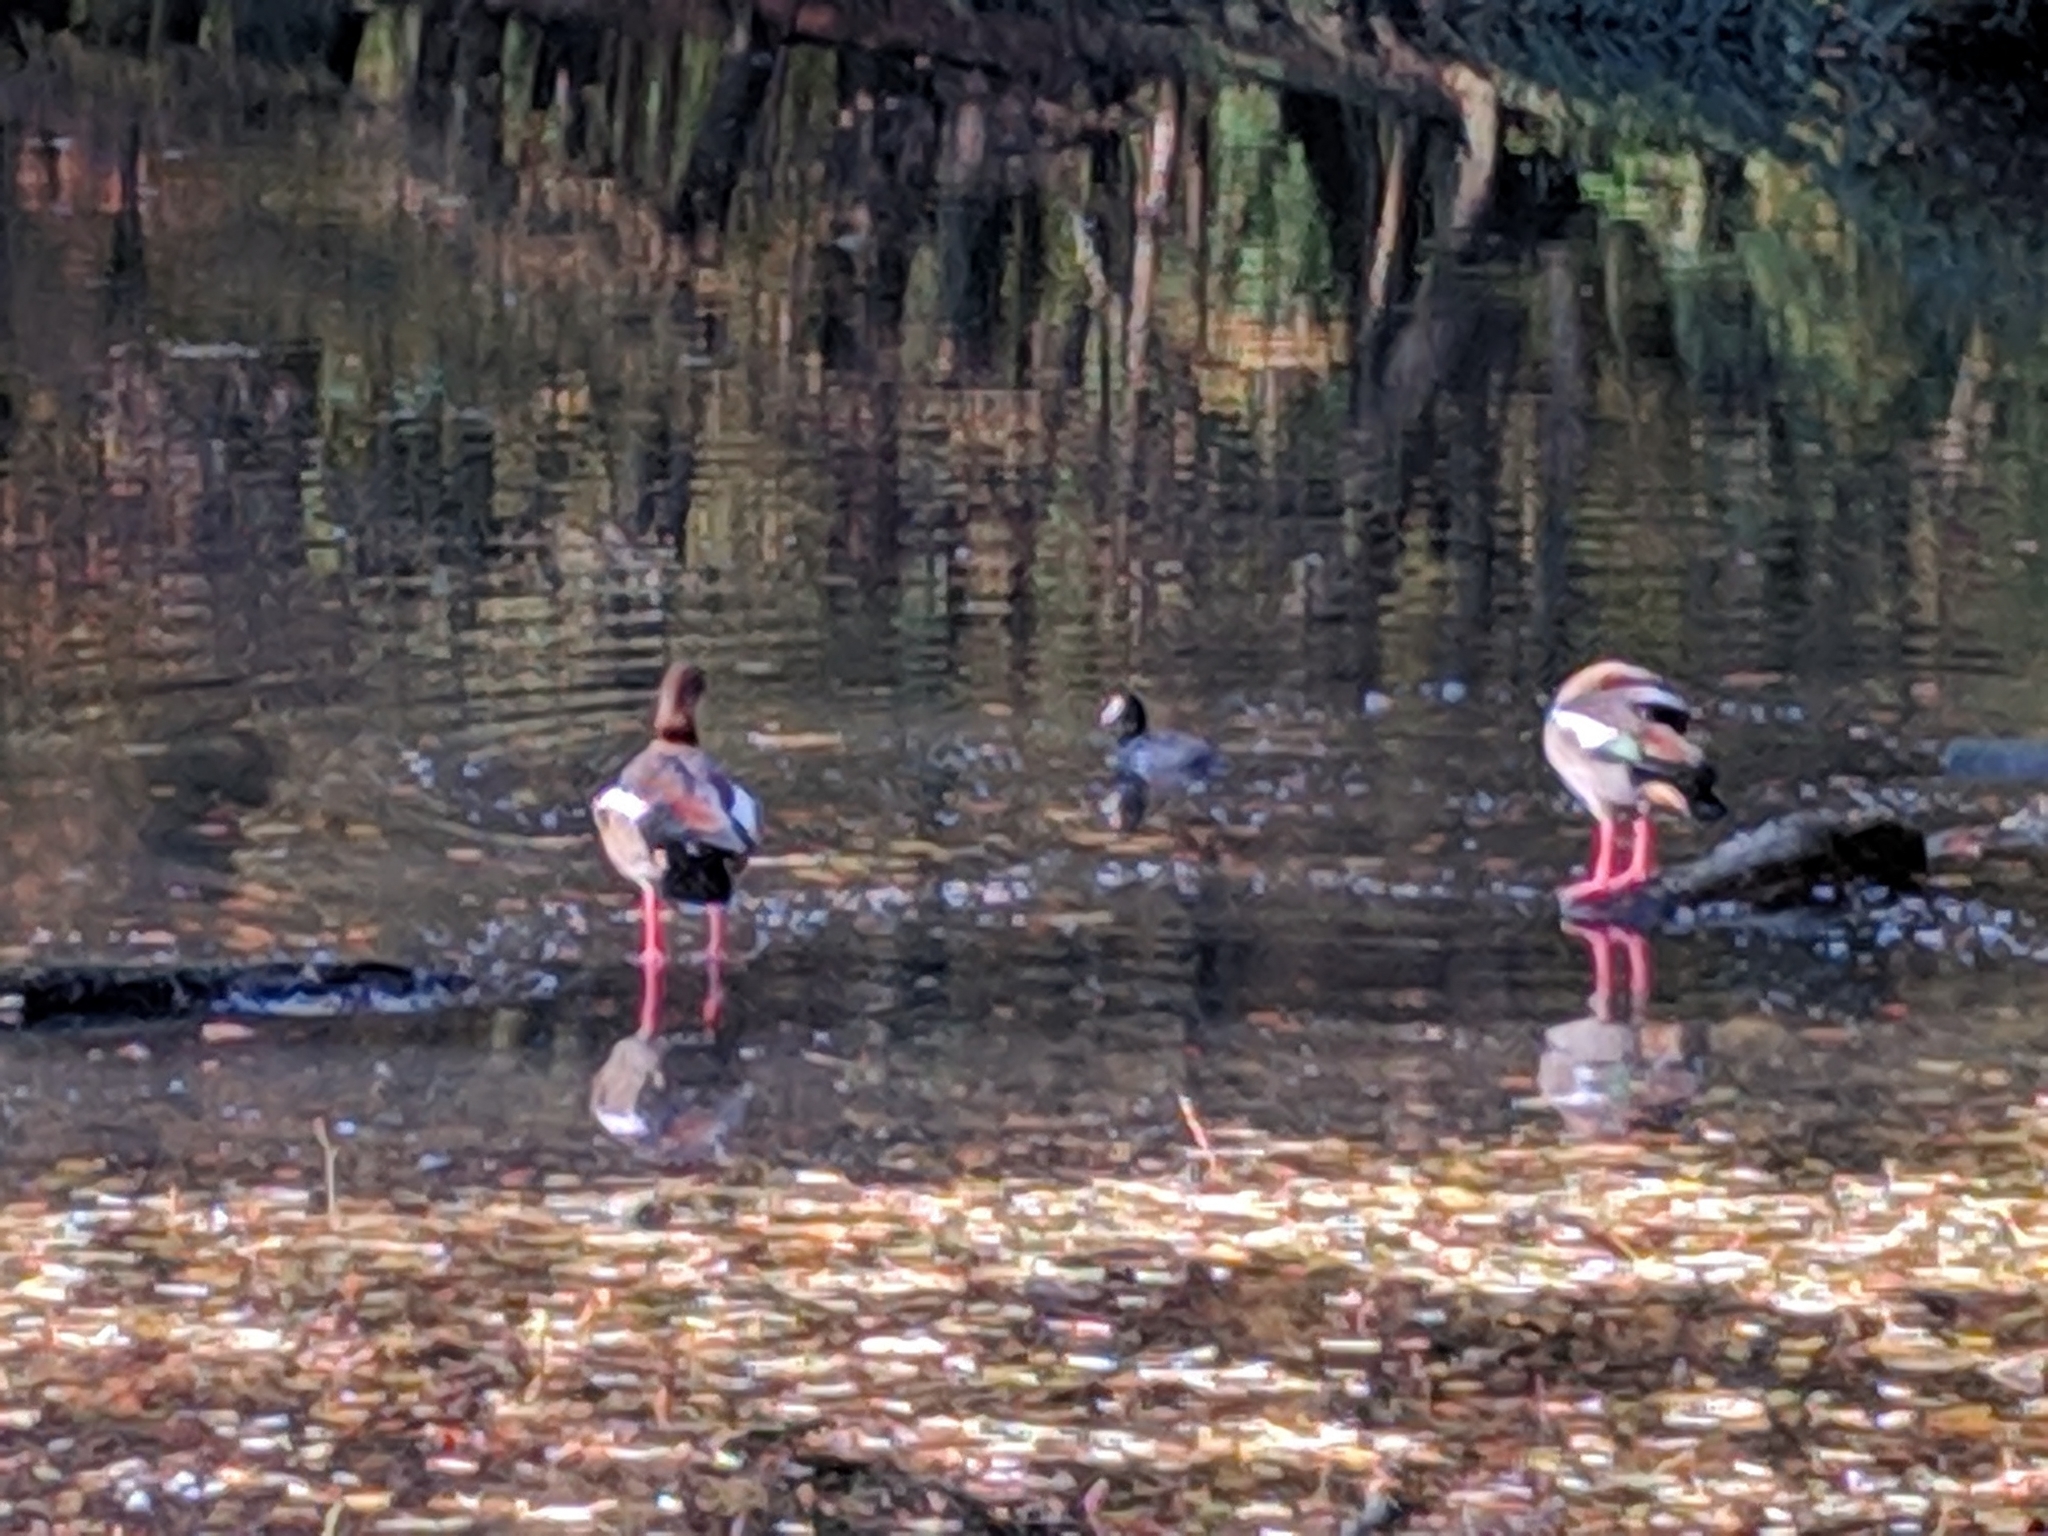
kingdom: Animalia
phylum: Chordata
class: Aves
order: Gruiformes
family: Rallidae
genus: Fulica
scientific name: Fulica atra
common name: Eurasian coot
